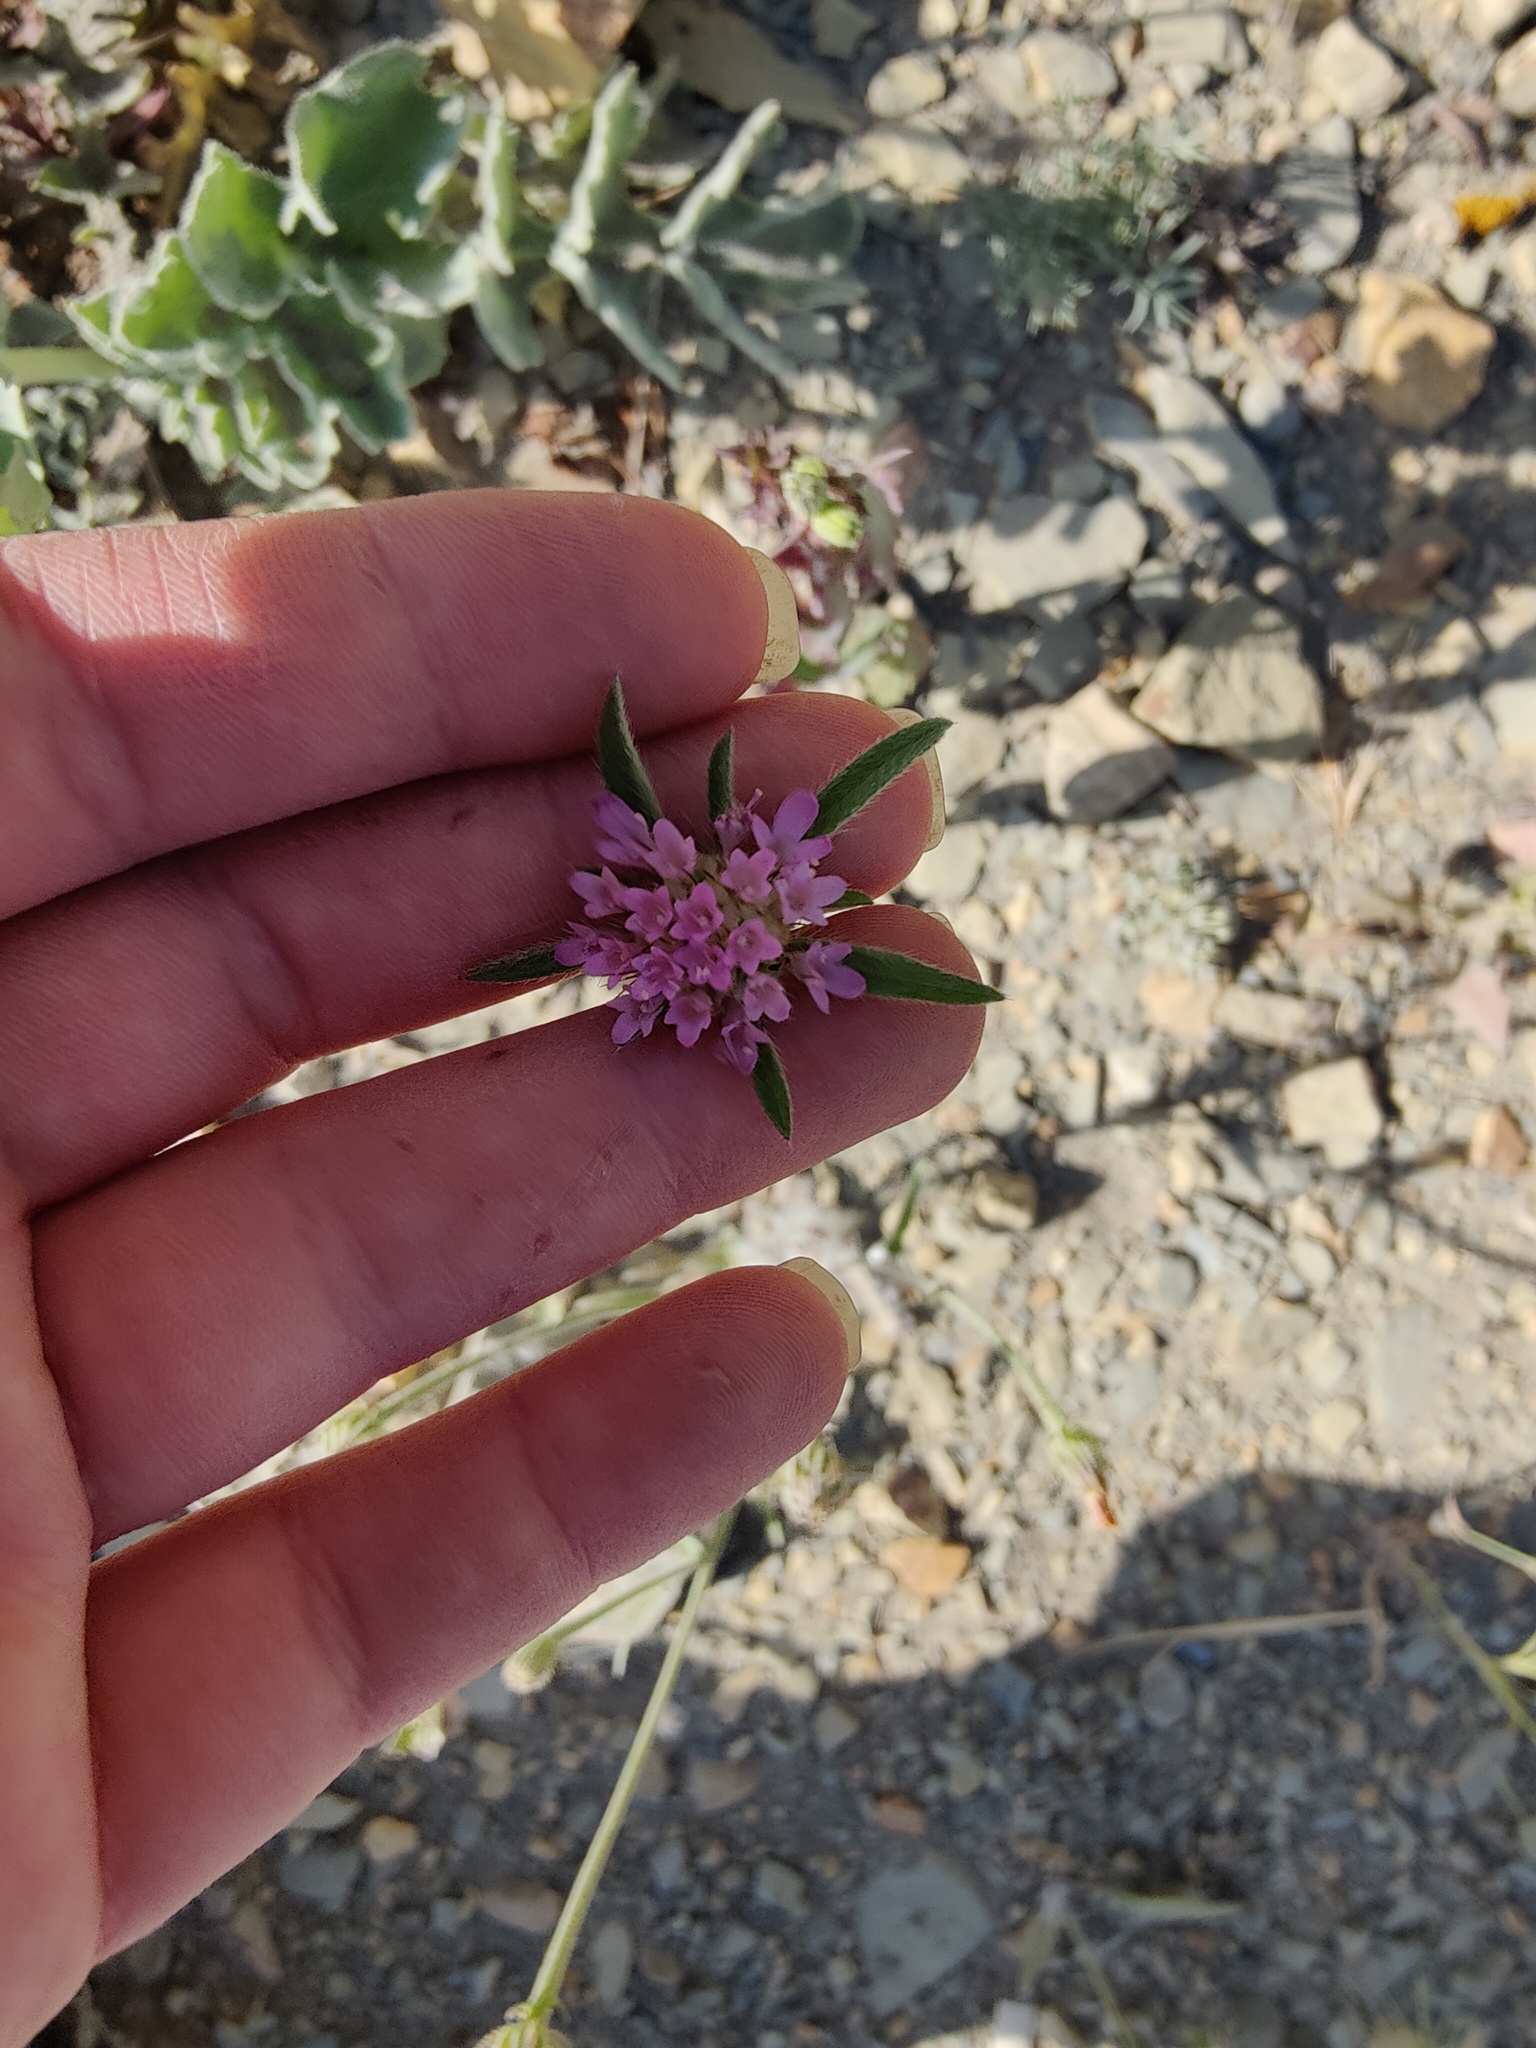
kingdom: Plantae
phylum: Tracheophyta
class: Magnoliopsida
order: Dipsacales
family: Caprifoliaceae
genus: Lomelosia
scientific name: Lomelosia micrantha
